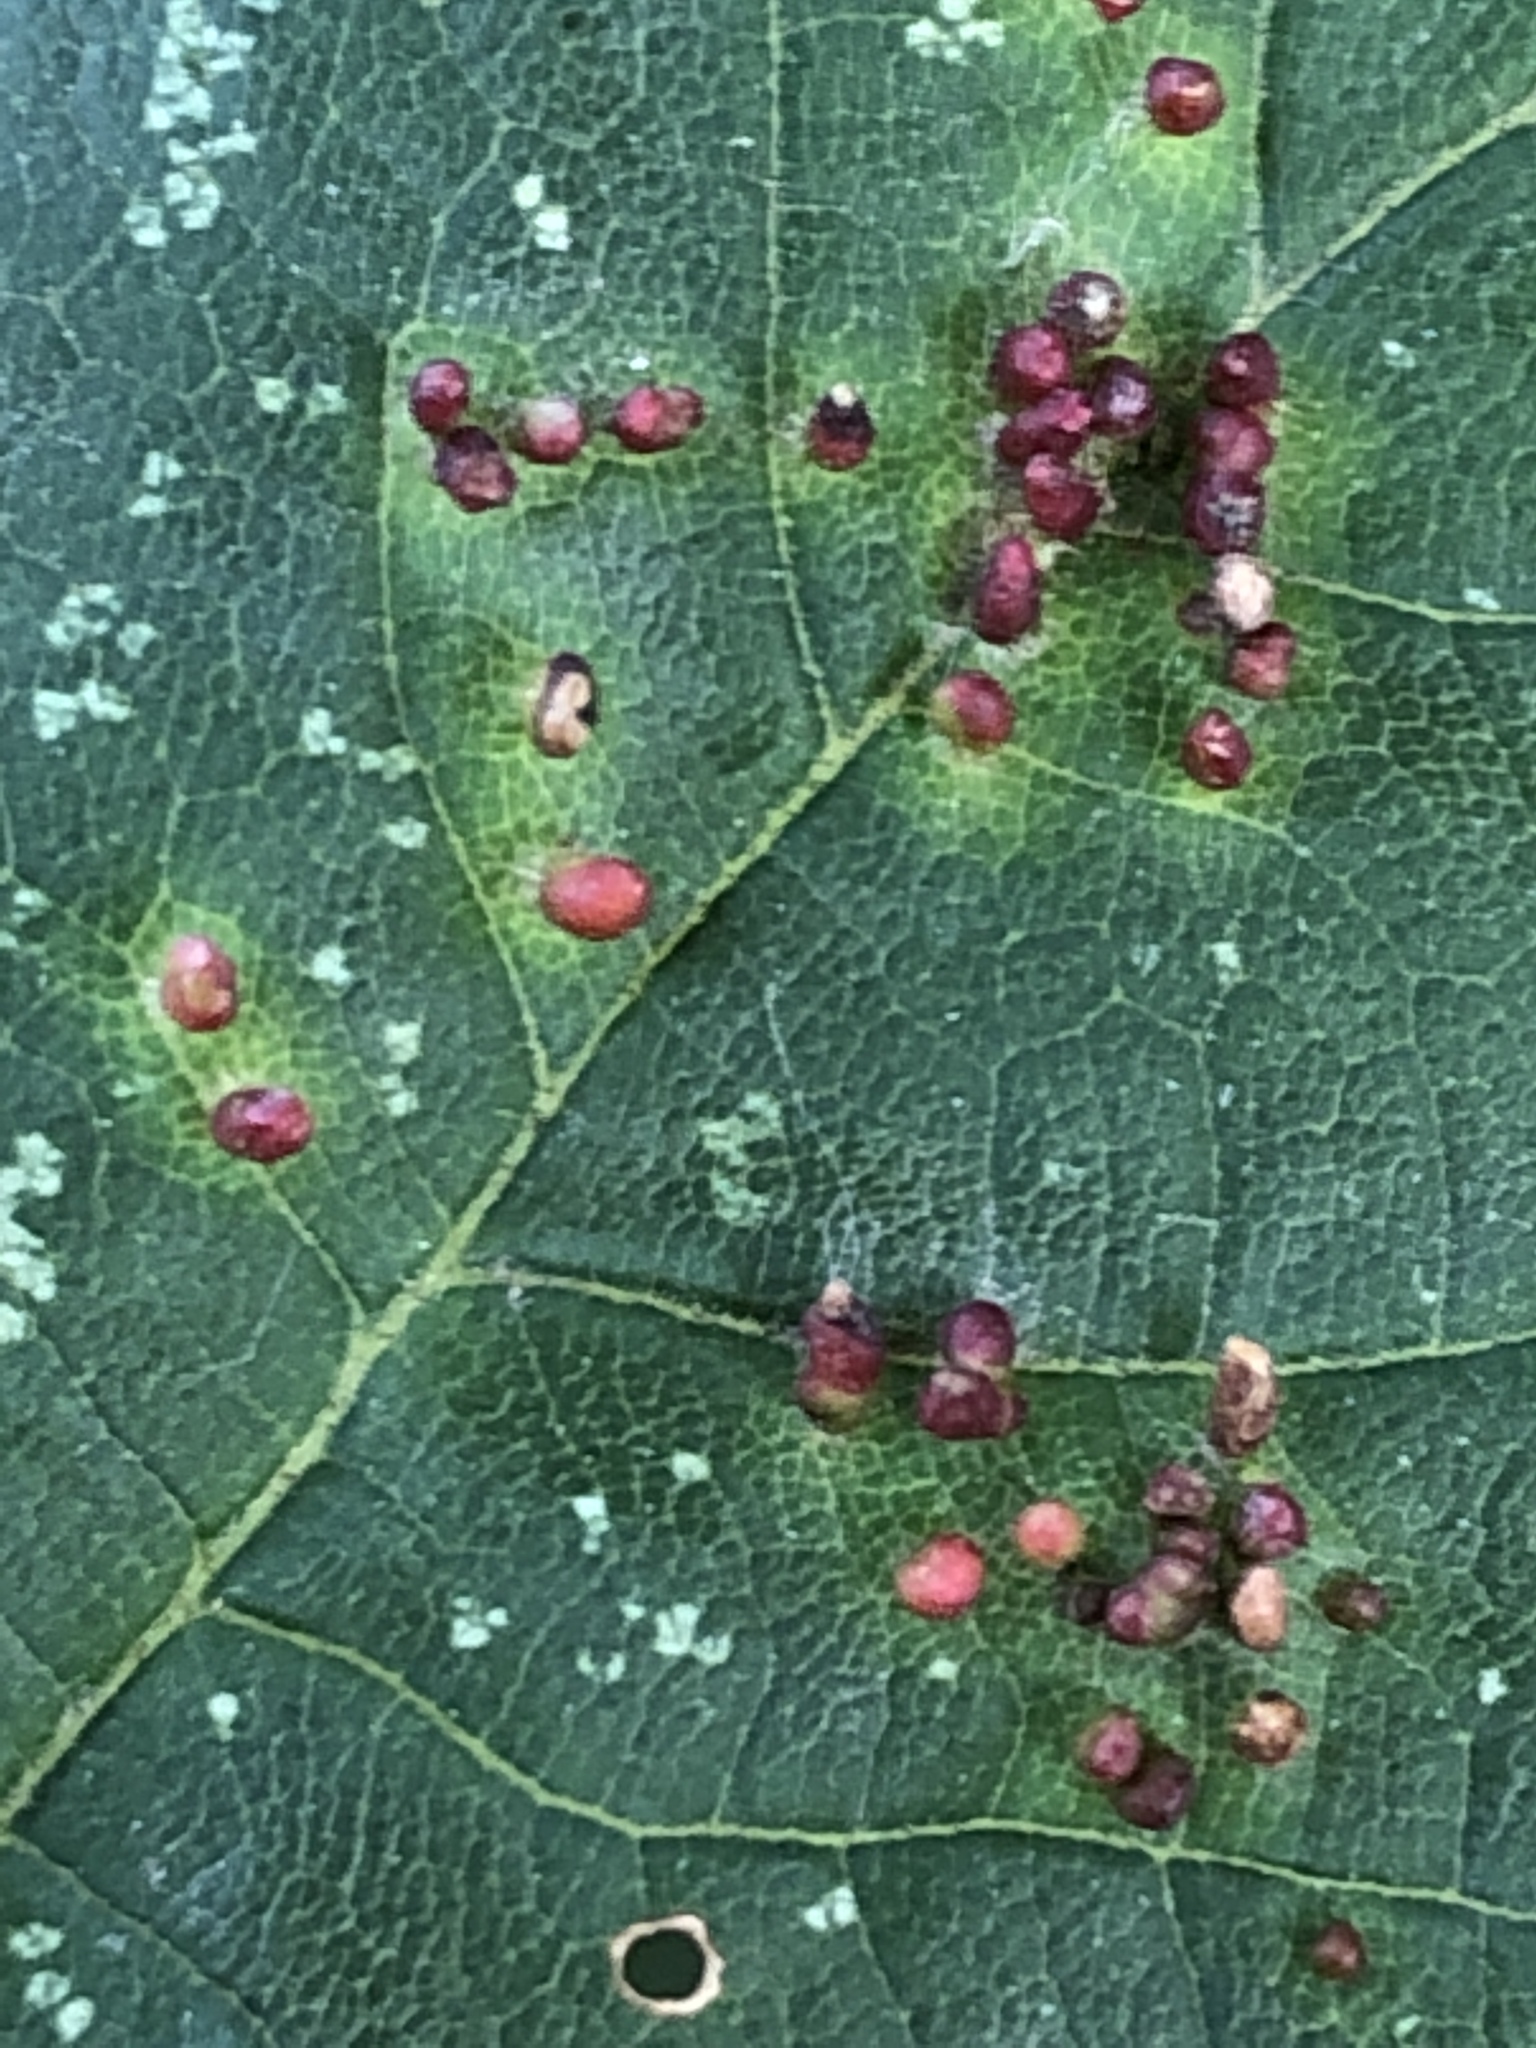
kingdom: Animalia
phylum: Arthropoda
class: Arachnida
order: Trombidiformes
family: Eriophyidae
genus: Aceria
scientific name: Aceria cephaloneus
